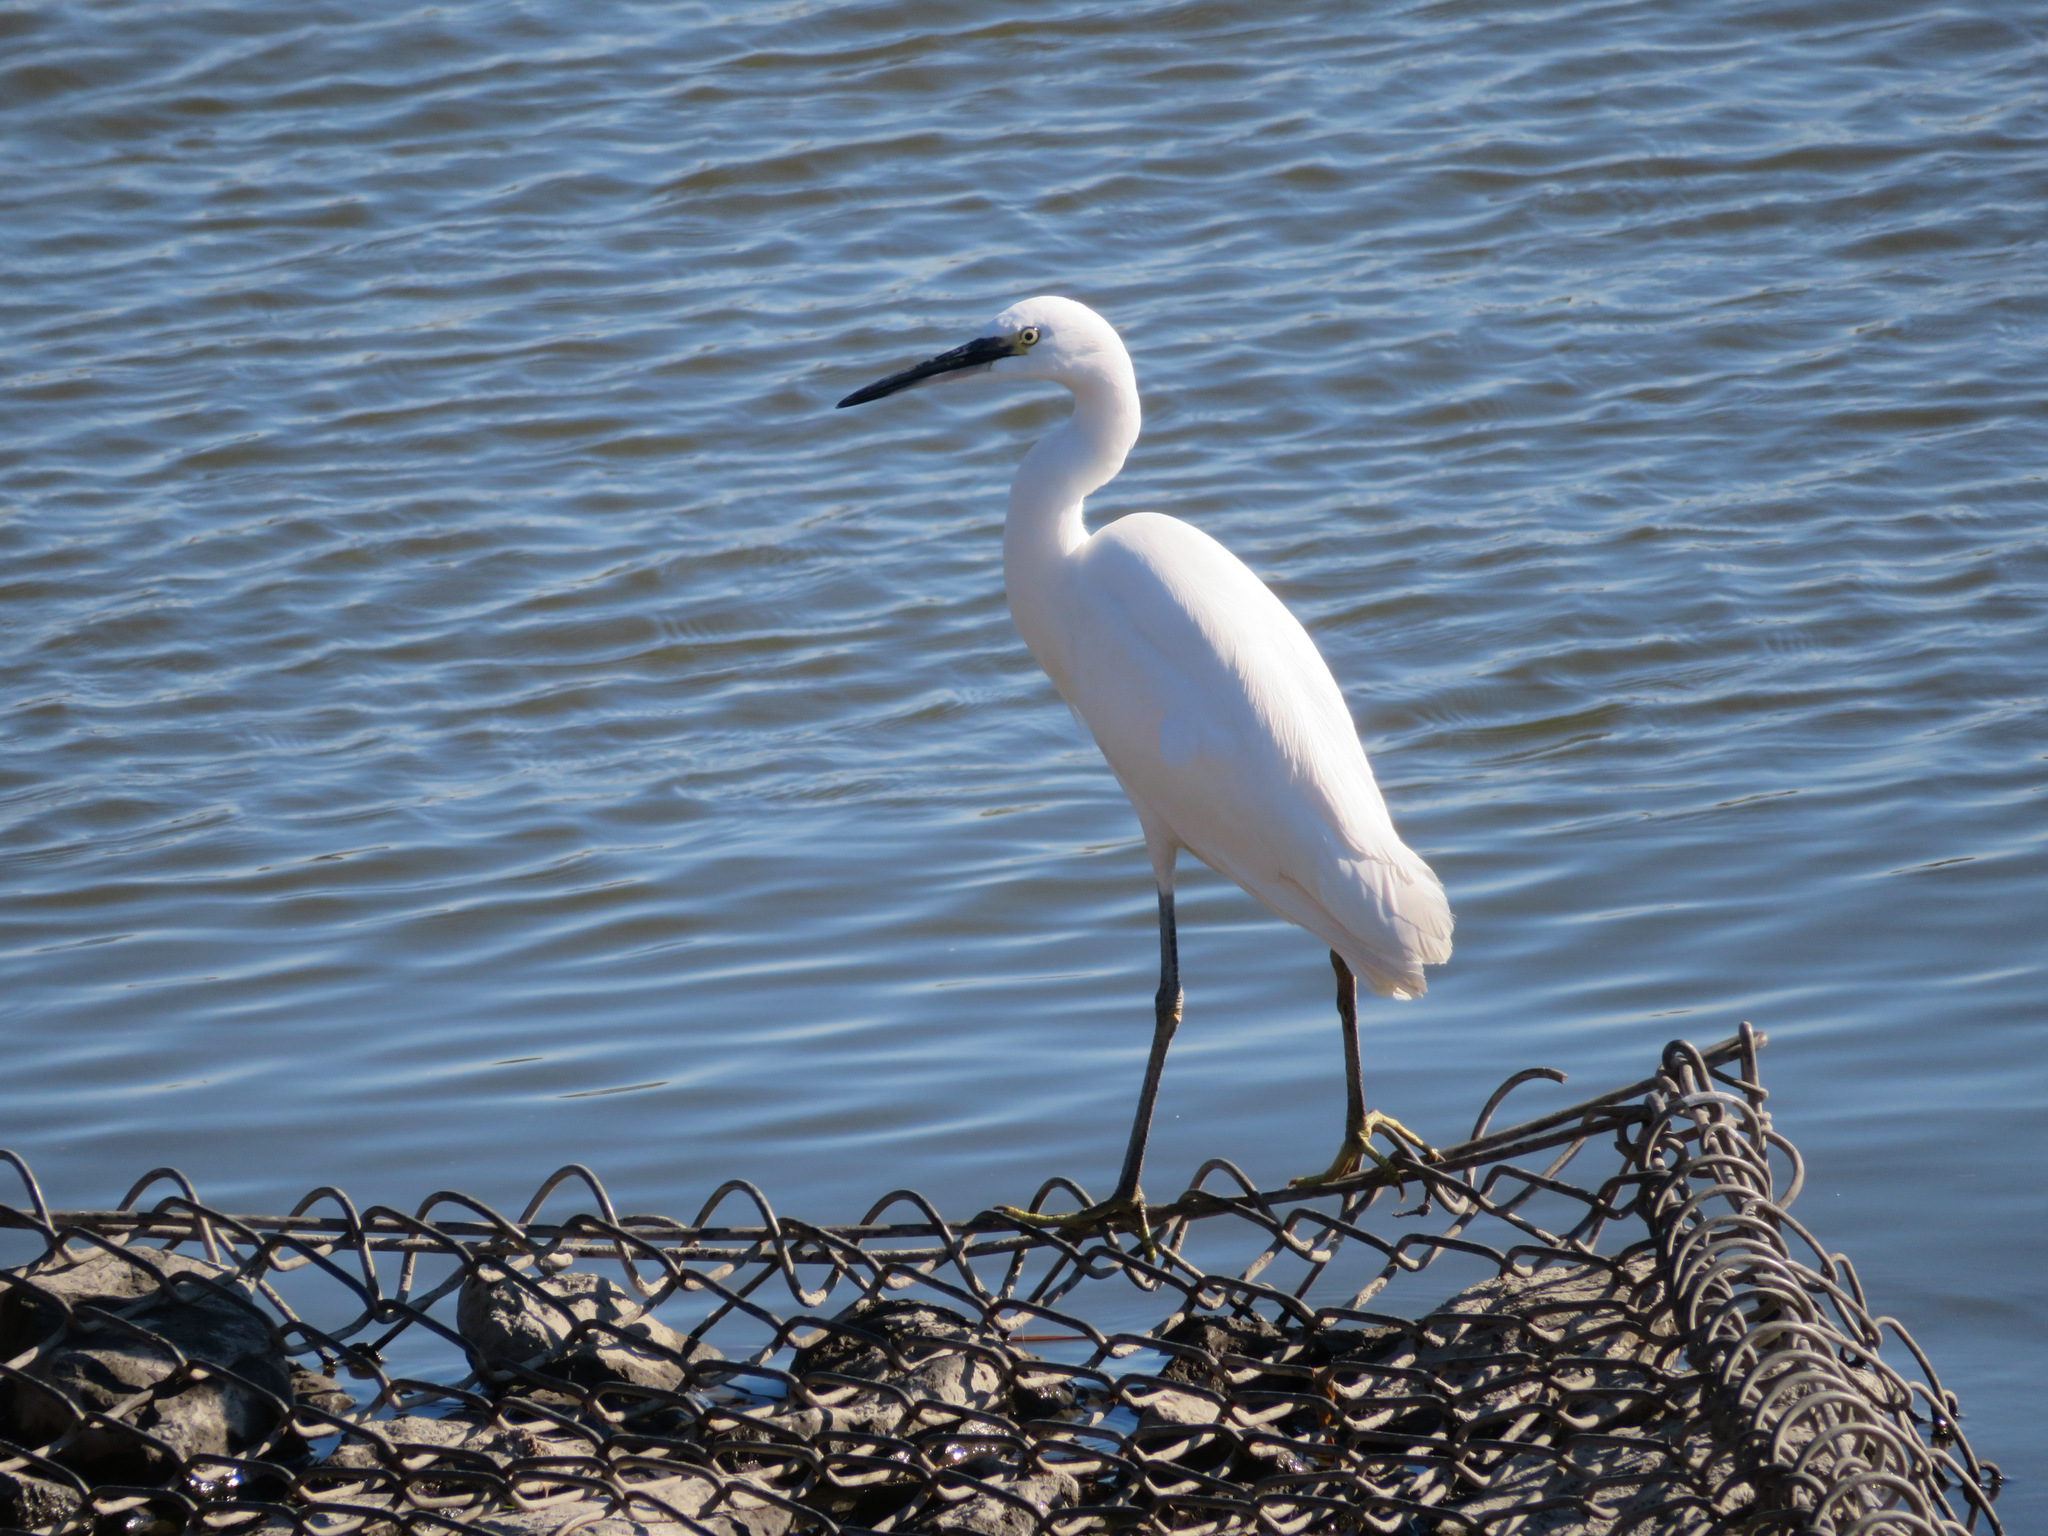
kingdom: Animalia
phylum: Chordata
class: Aves
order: Pelecaniformes
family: Ardeidae
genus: Egretta
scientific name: Egretta garzetta
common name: Little egret
